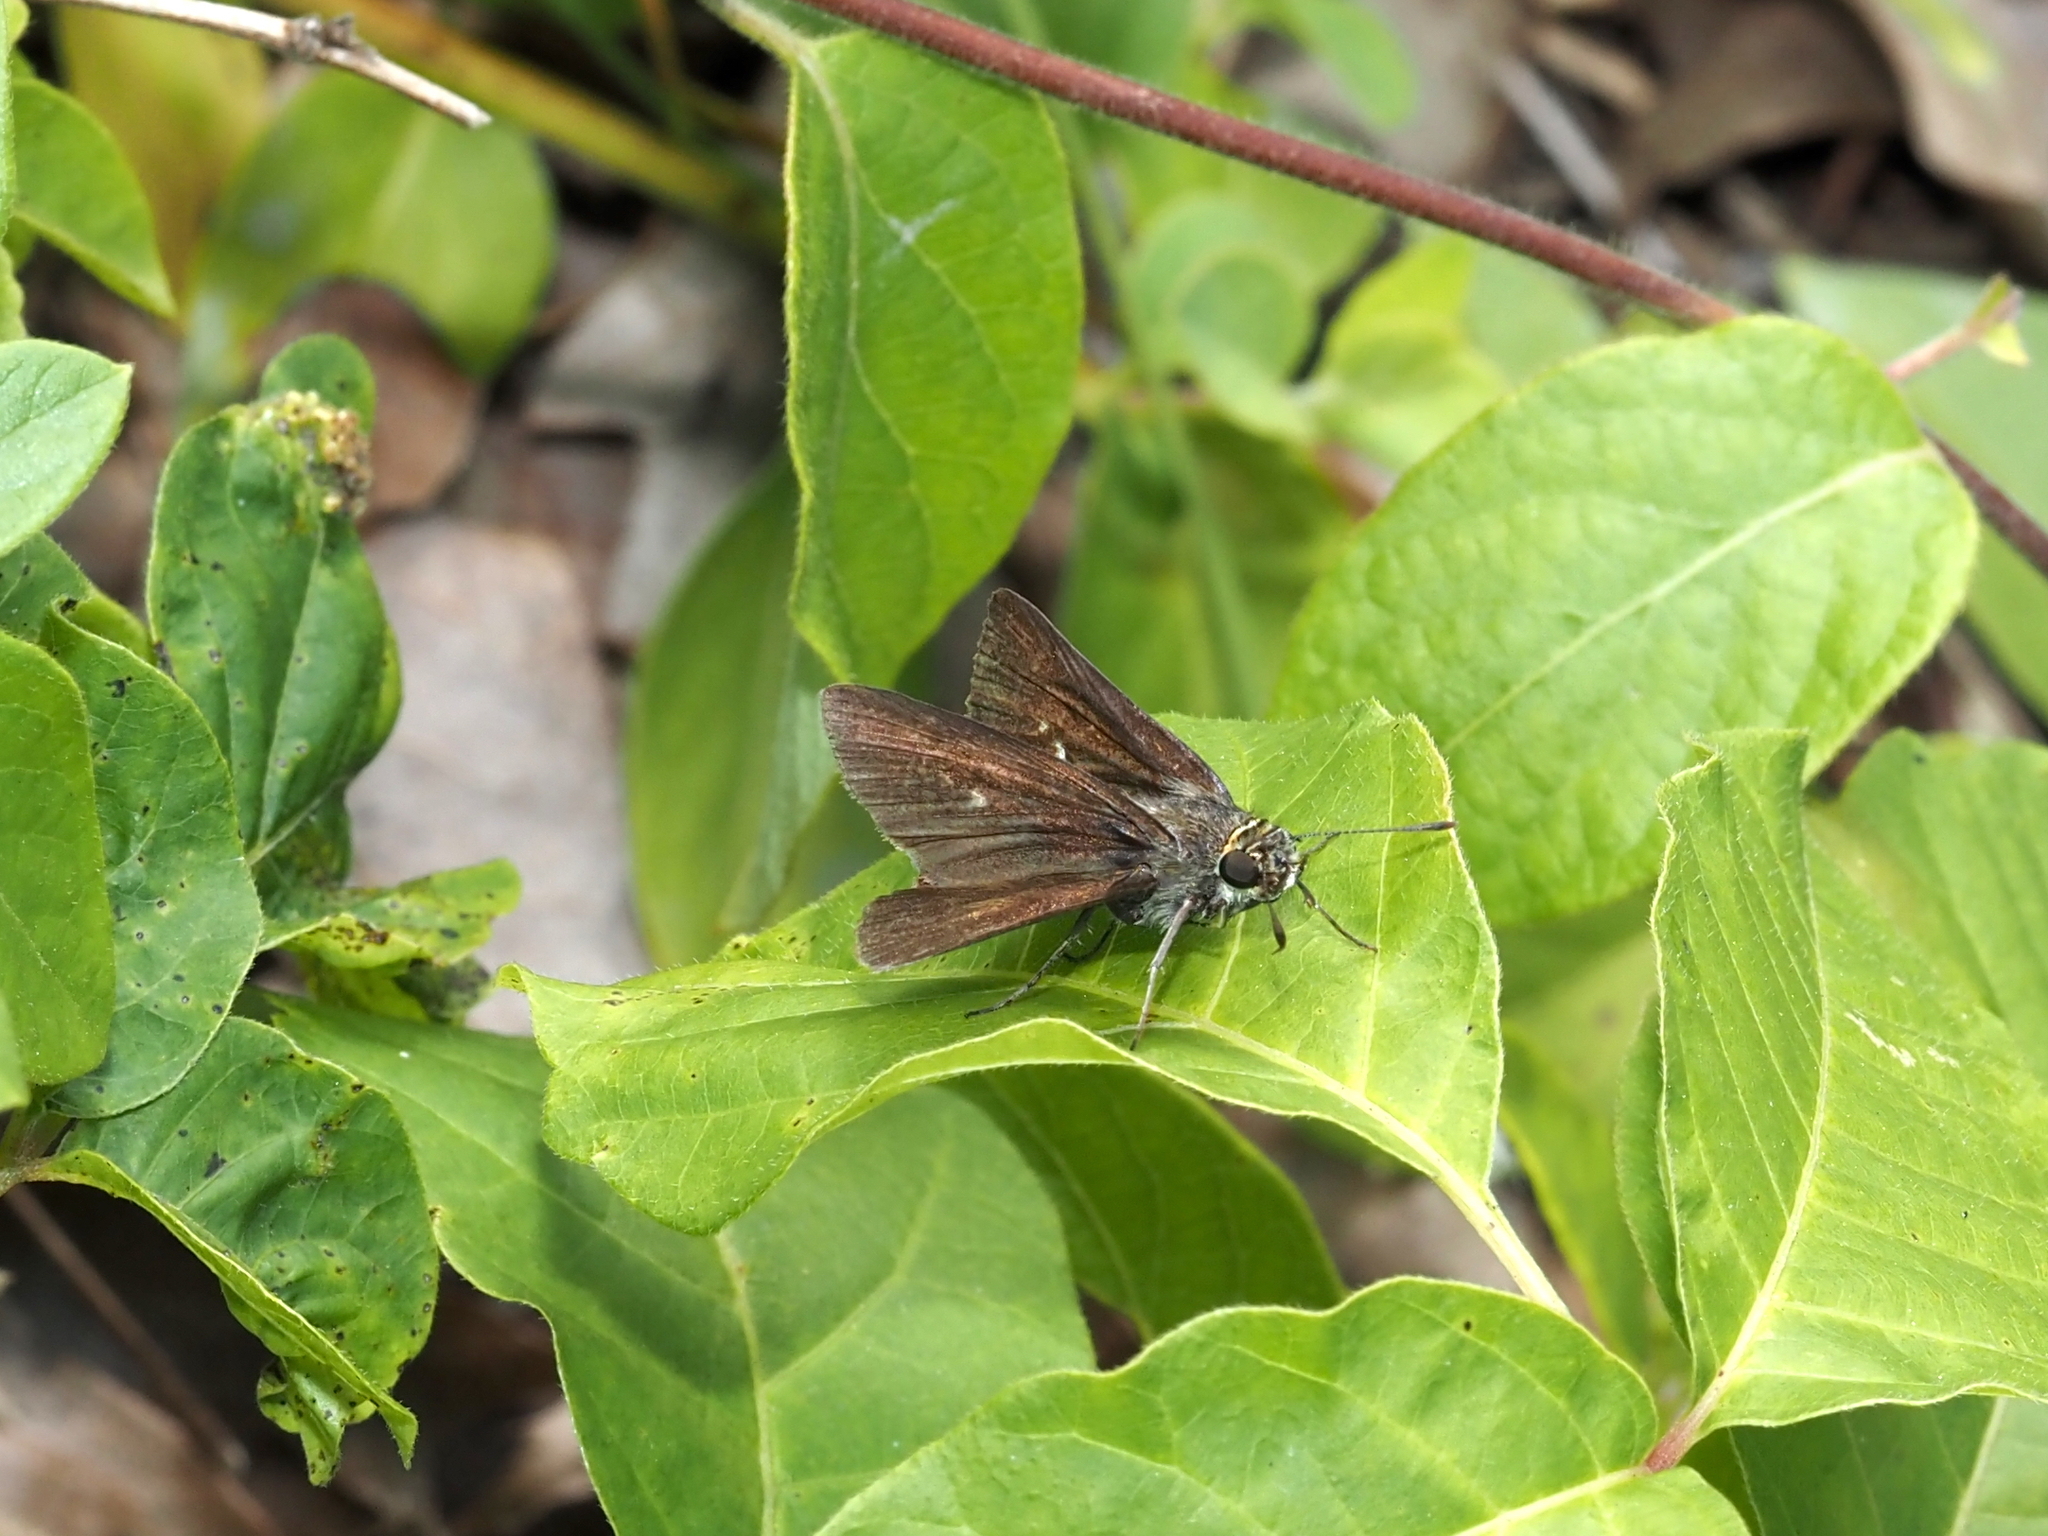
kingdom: Animalia
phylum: Arthropoda
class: Insecta
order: Lepidoptera
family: Hesperiidae
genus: Euphyes
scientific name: Euphyes vestris
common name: Dun skipper
